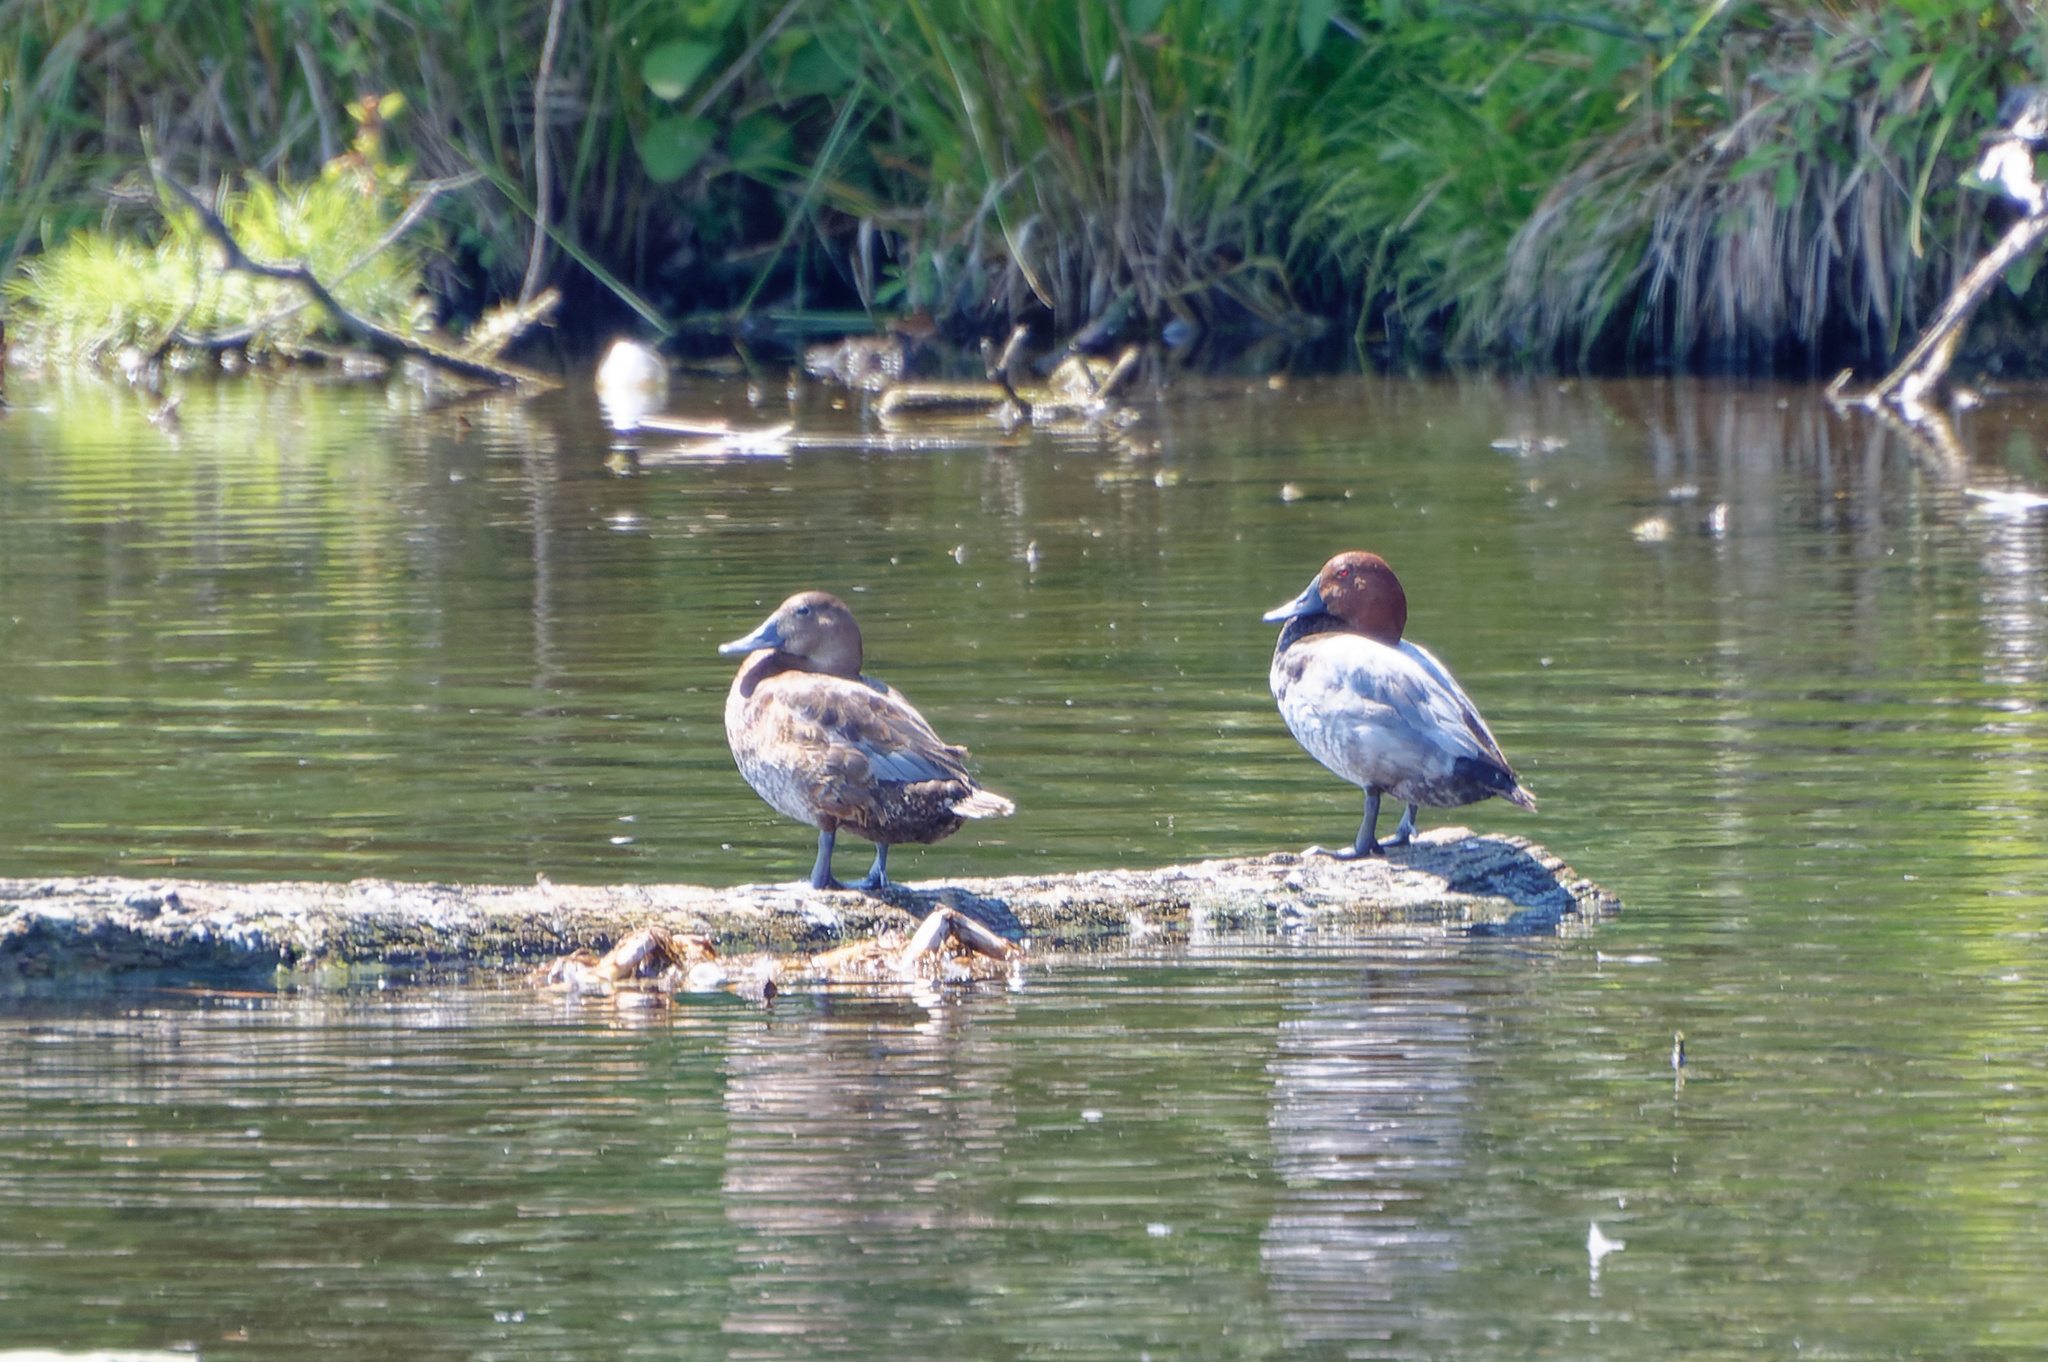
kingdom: Animalia
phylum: Chordata
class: Aves
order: Anseriformes
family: Anatidae
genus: Aythya
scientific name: Aythya ferina
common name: Common pochard
